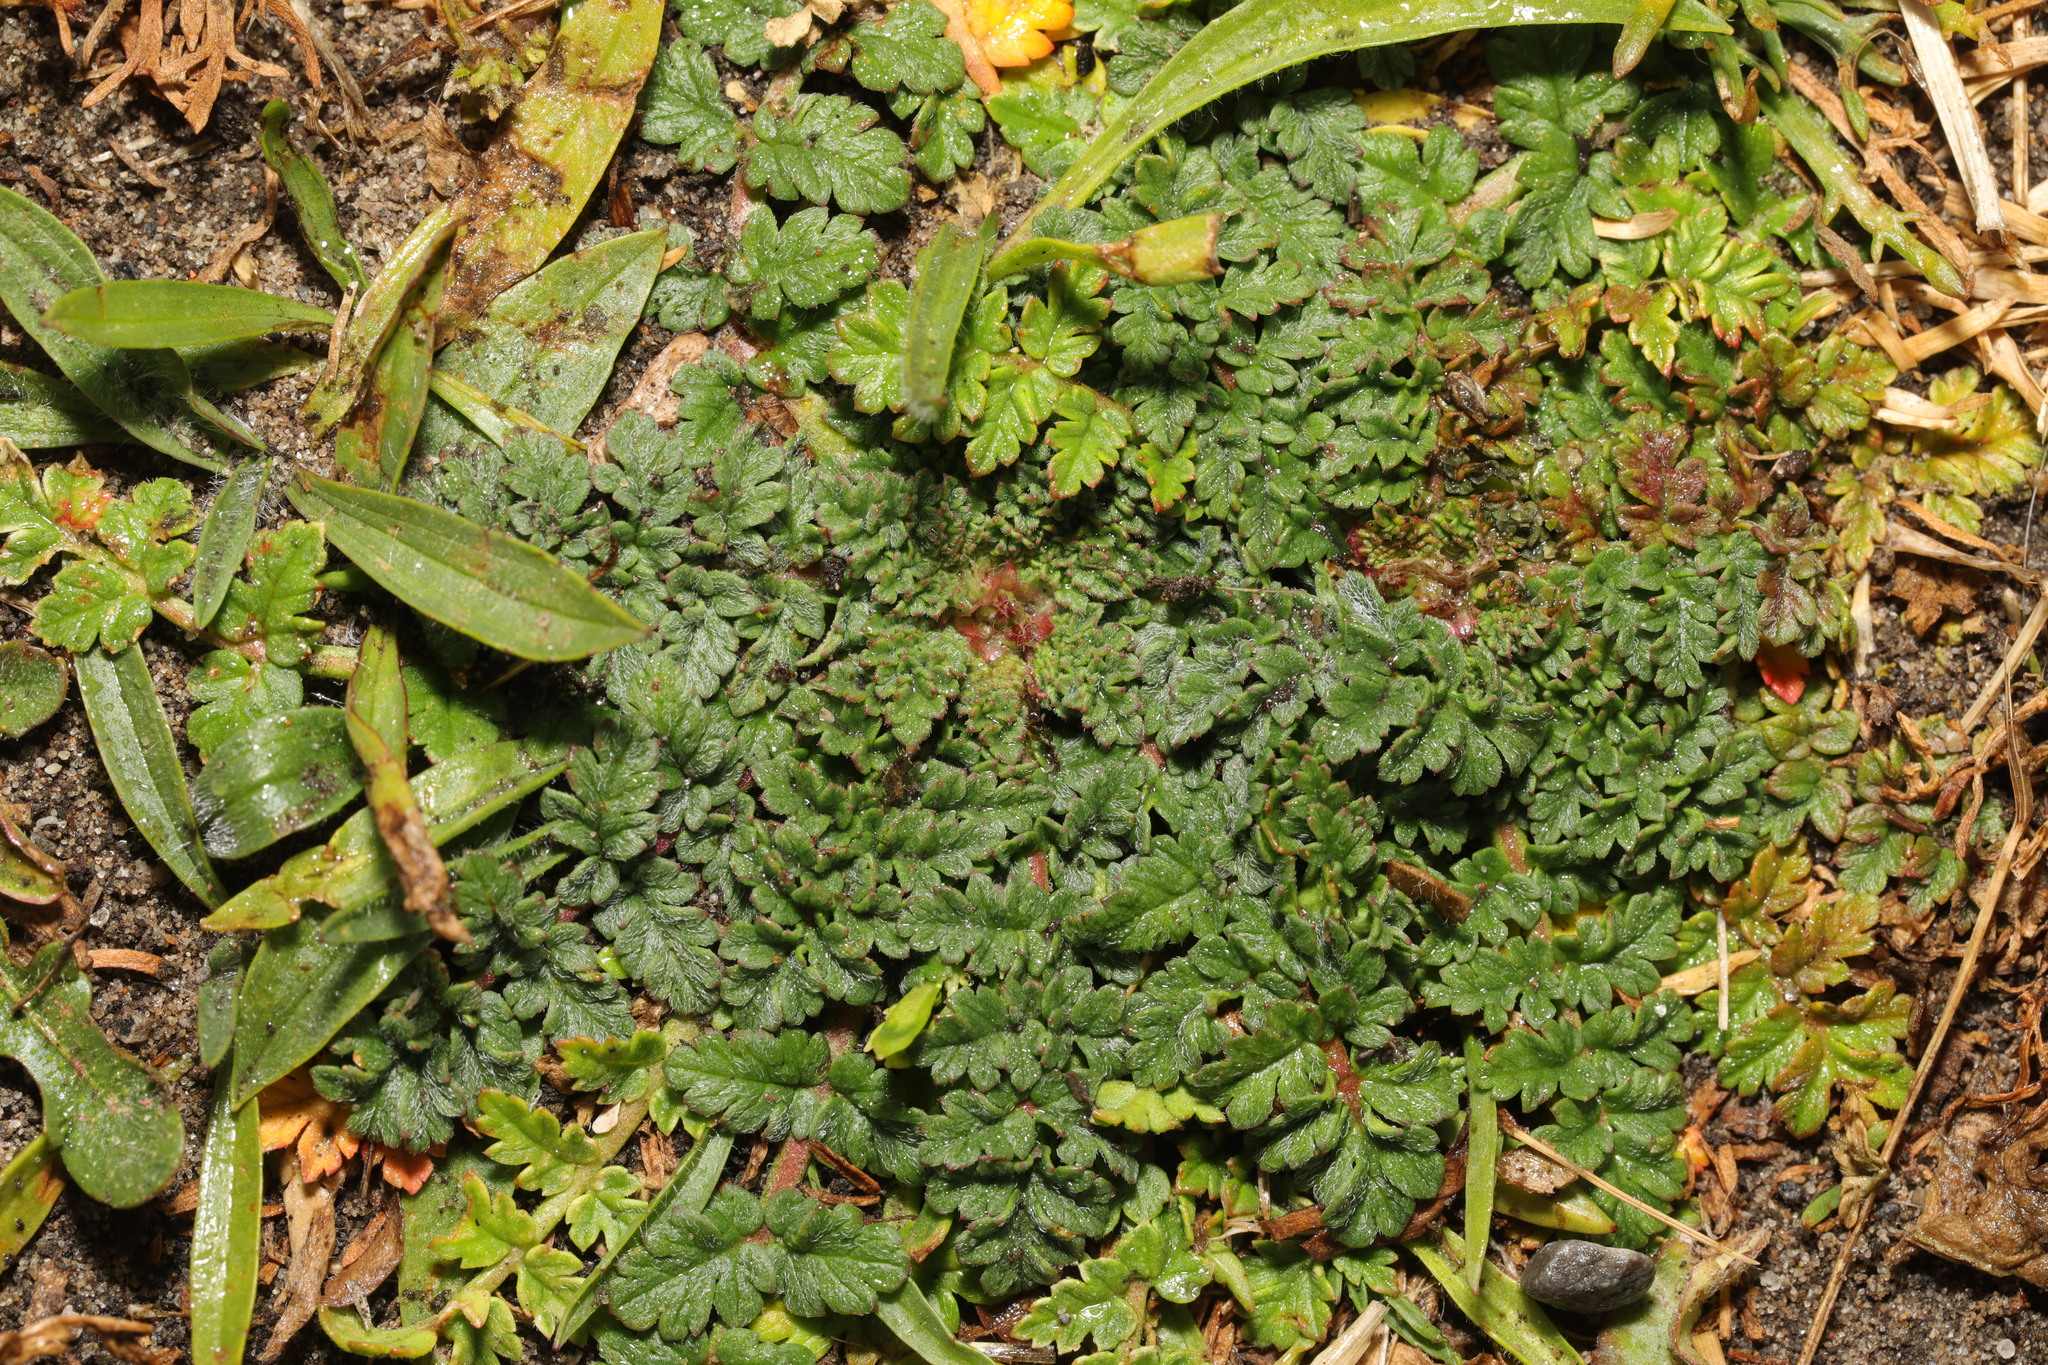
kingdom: Plantae
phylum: Tracheophyta
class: Magnoliopsida
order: Geraniales
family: Geraniaceae
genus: Erodium
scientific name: Erodium cicutarium
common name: Common stork's-bill
